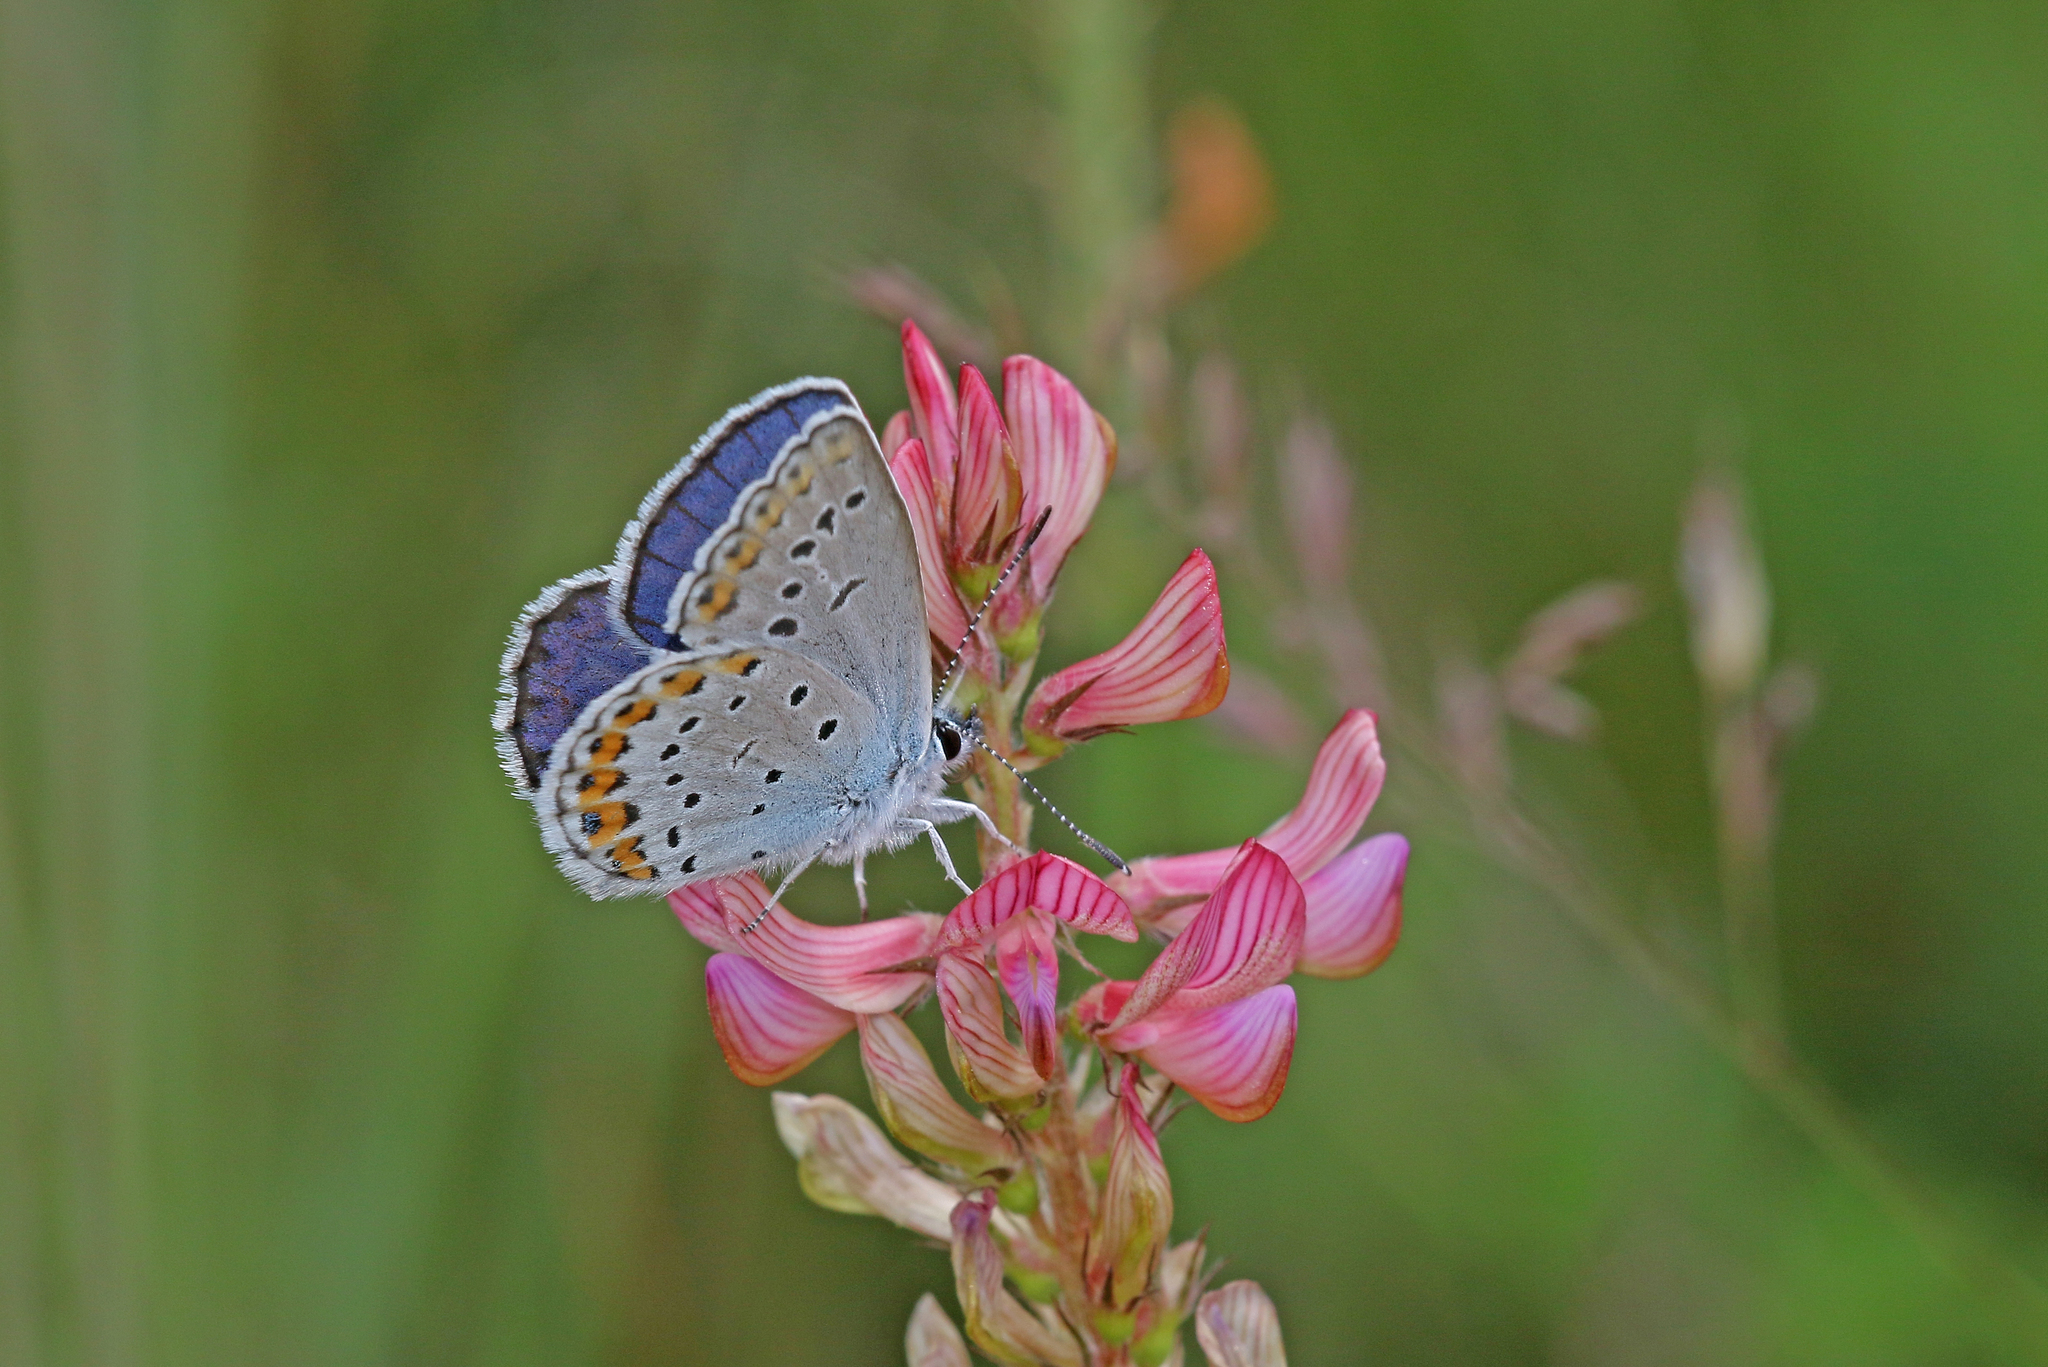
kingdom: Animalia
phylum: Arthropoda
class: Insecta
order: Lepidoptera
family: Lycaenidae
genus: Plebejus
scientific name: Plebejus argyrognomon
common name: Reverdin's blue
